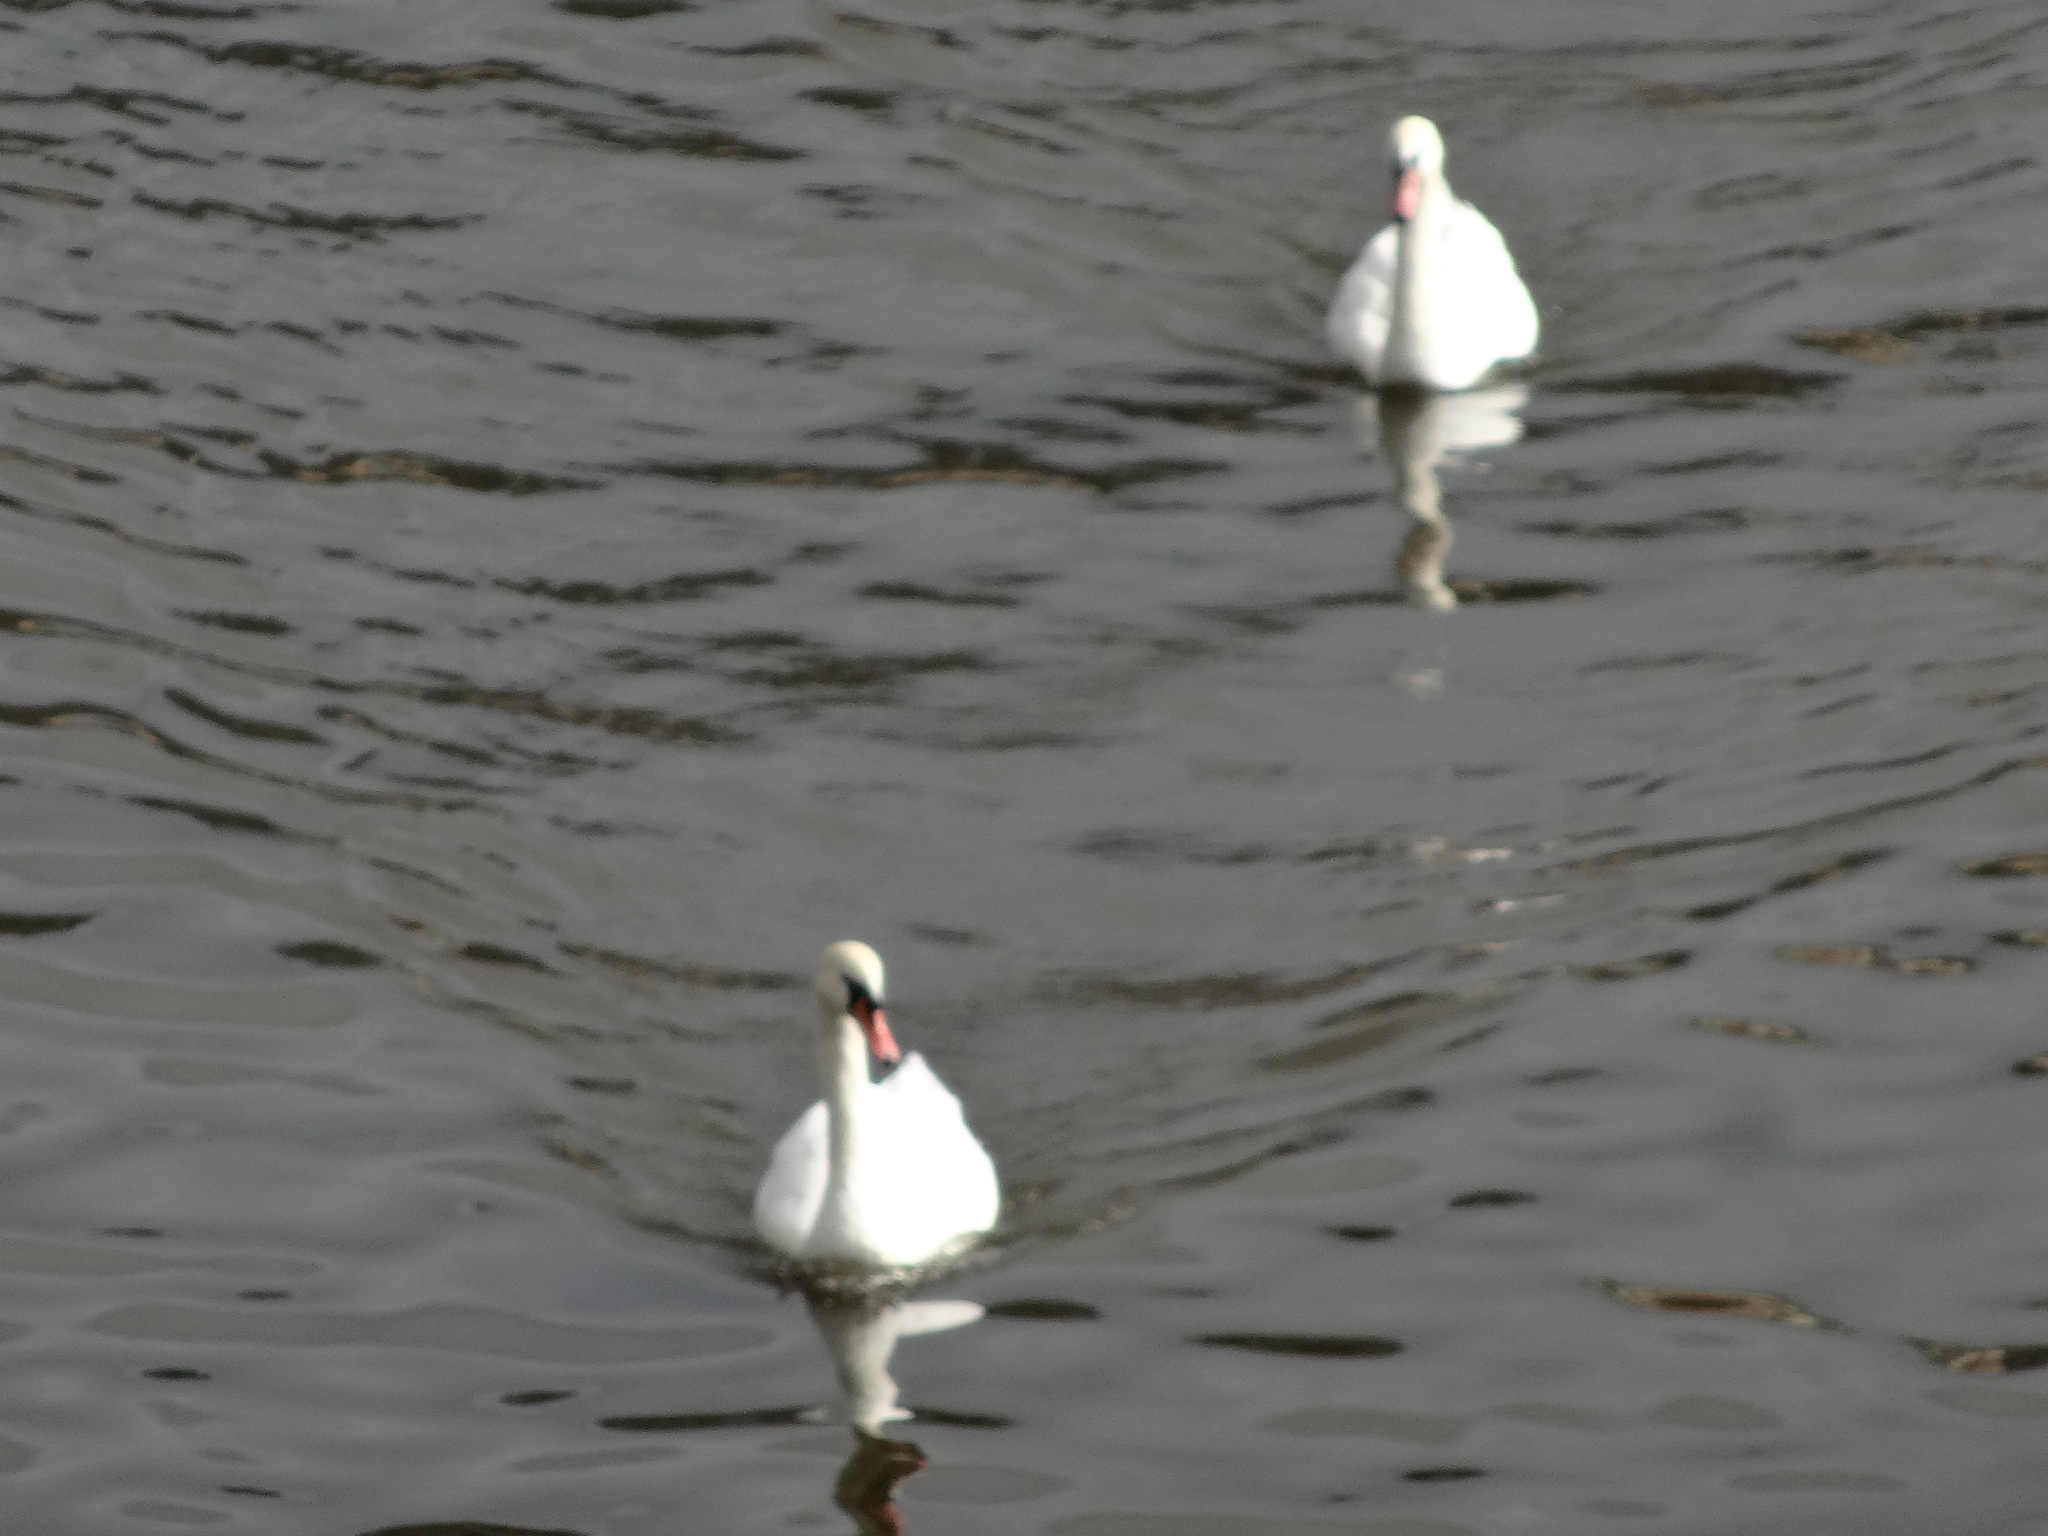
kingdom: Animalia
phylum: Chordata
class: Aves
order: Anseriformes
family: Anatidae
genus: Cygnus
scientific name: Cygnus olor
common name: Mute swan
